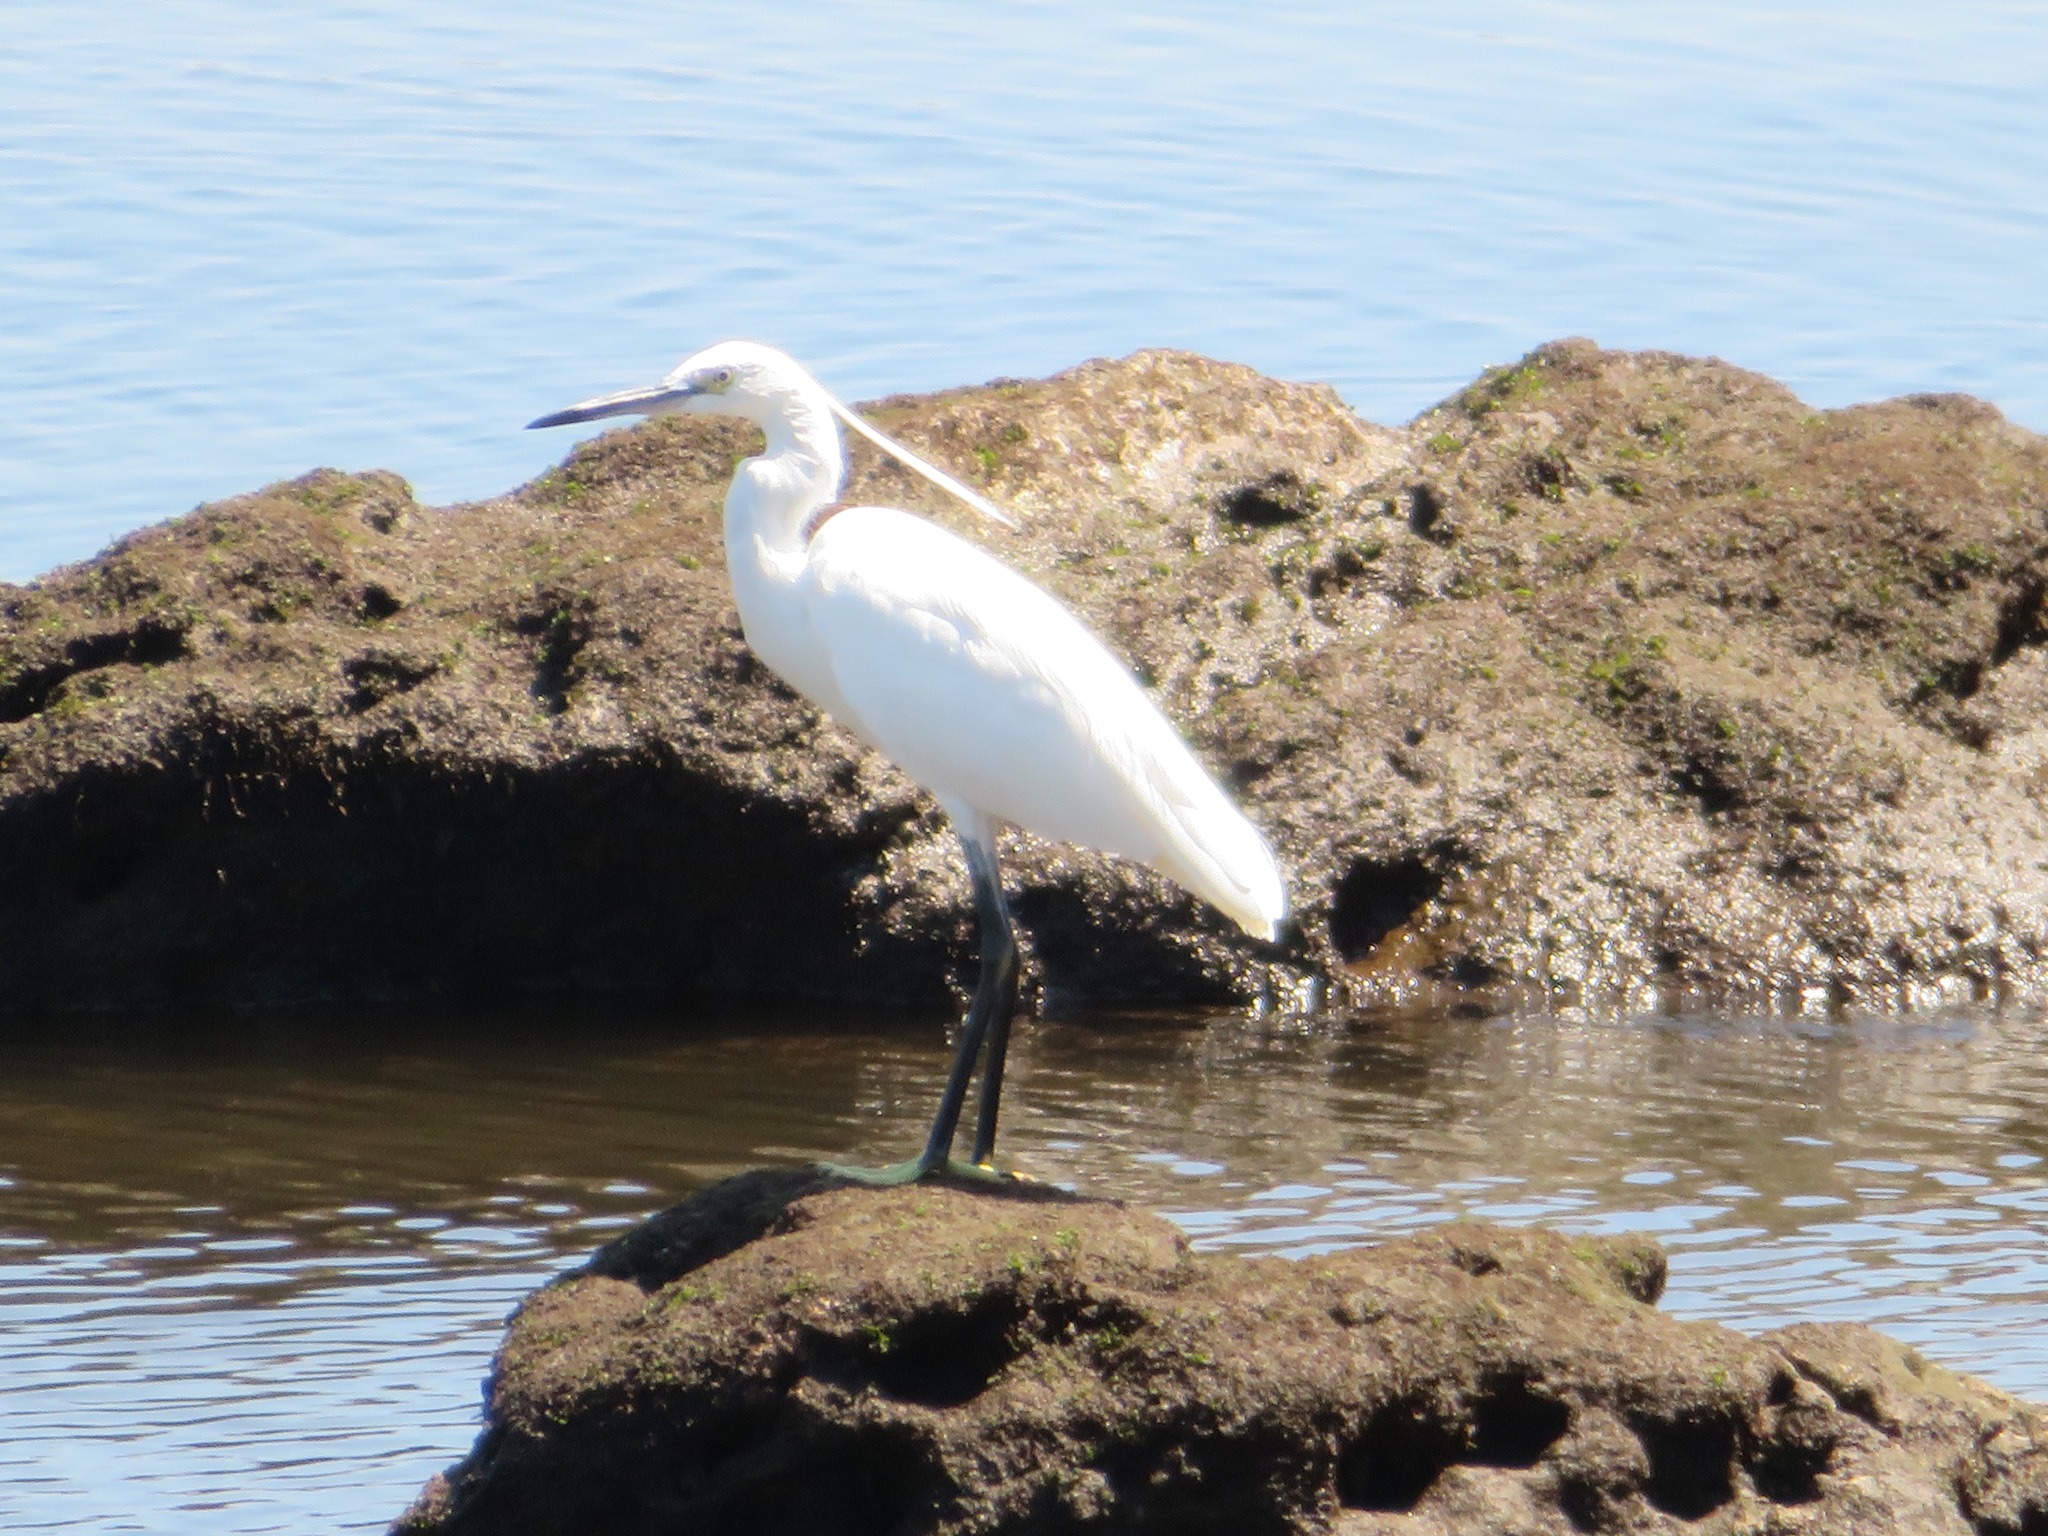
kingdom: Animalia
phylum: Chordata
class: Aves
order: Pelecaniformes
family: Ardeidae
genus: Egretta
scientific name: Egretta garzetta
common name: Little egret
